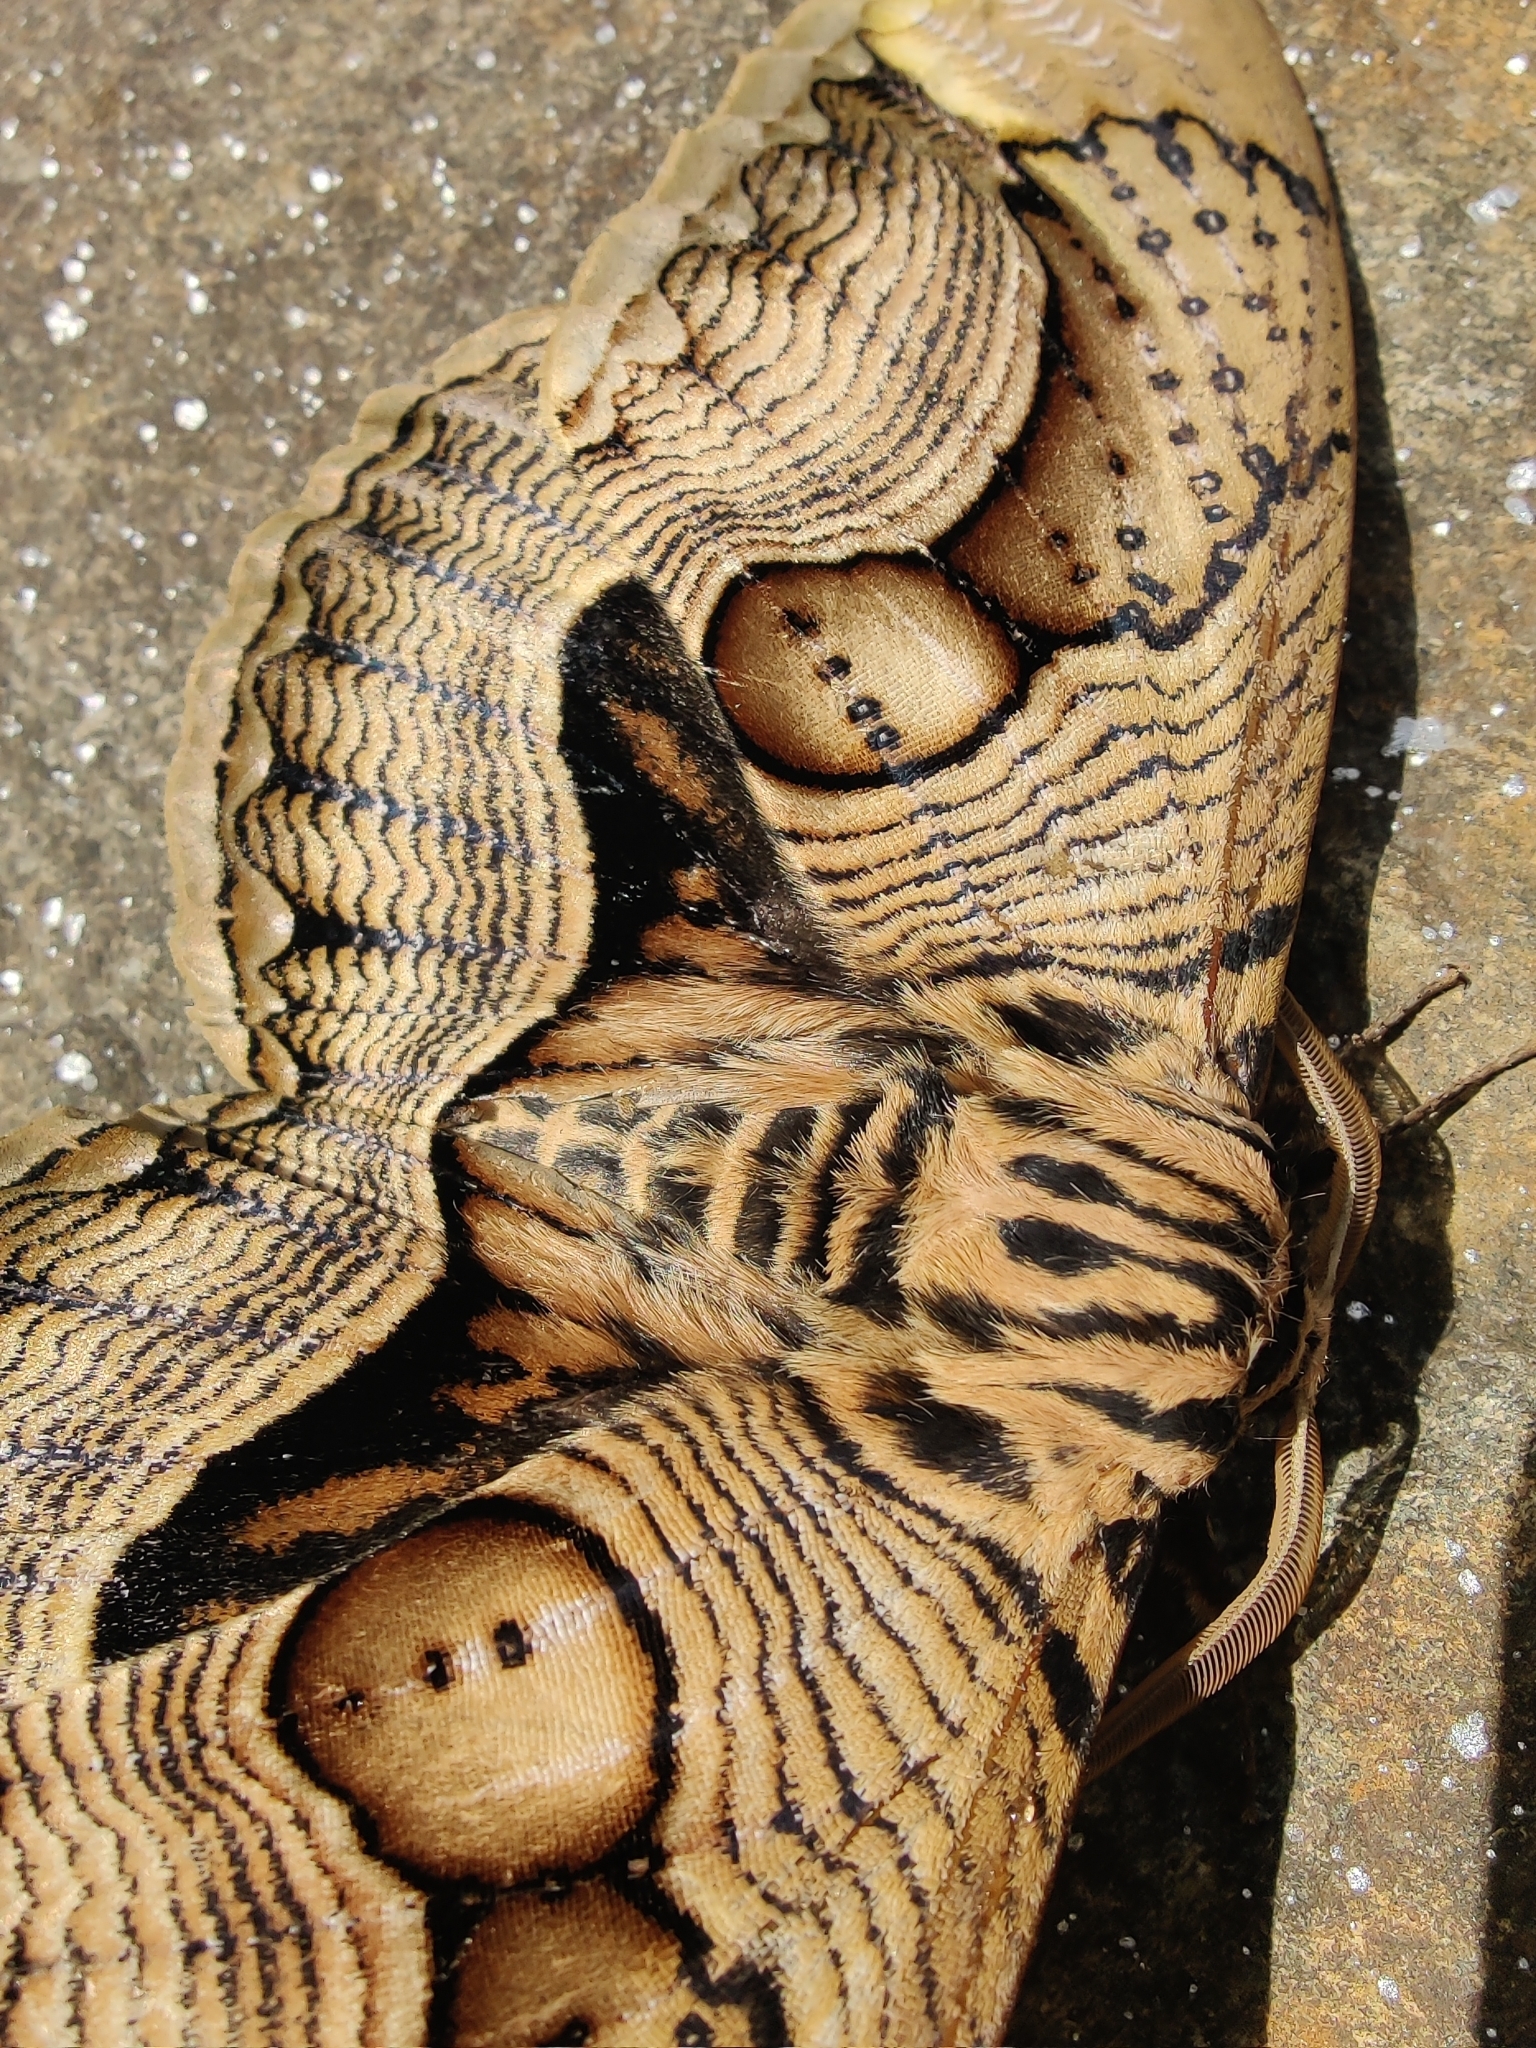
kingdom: Animalia
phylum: Arthropoda
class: Insecta
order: Lepidoptera
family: Brahmaeidae
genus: Brahmaea
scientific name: Brahmaea wallichii
